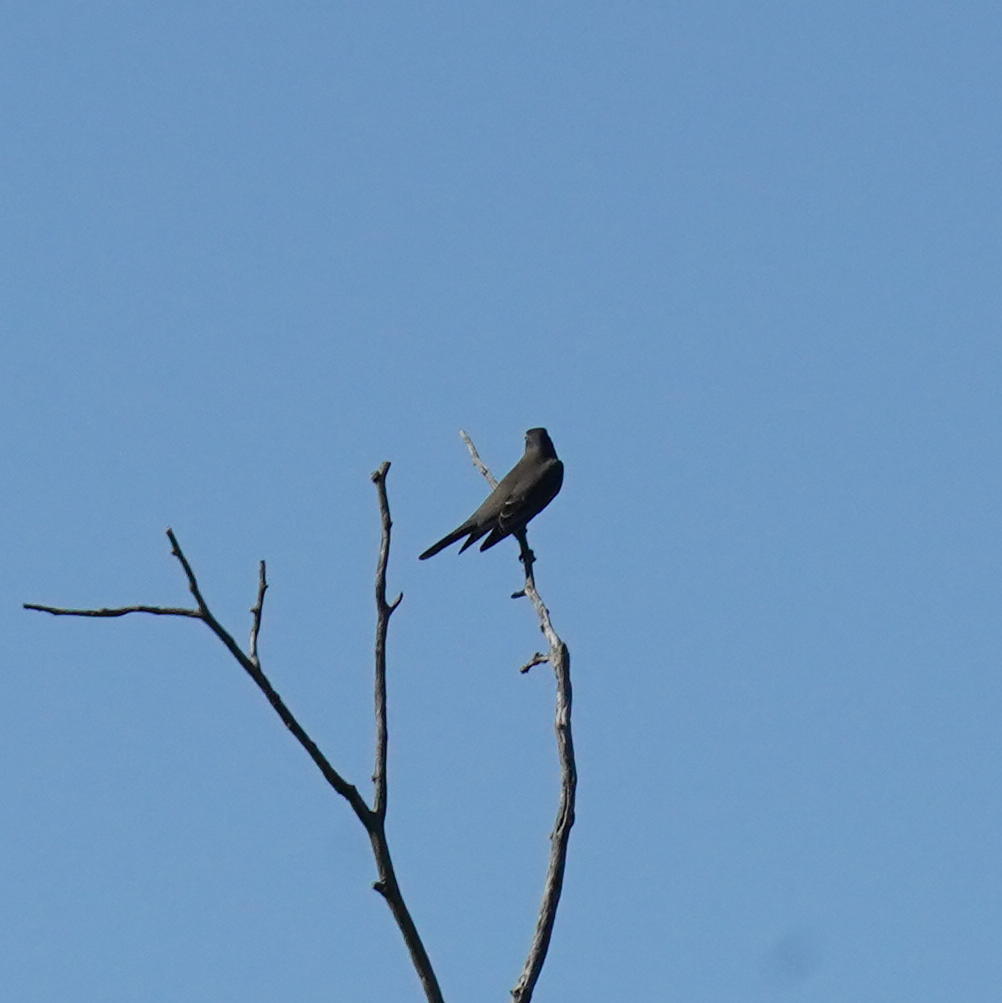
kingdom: Animalia
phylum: Chordata
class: Aves
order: Passeriformes
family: Turdidae
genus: Turdus
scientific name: Turdus migratorius
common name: American robin
